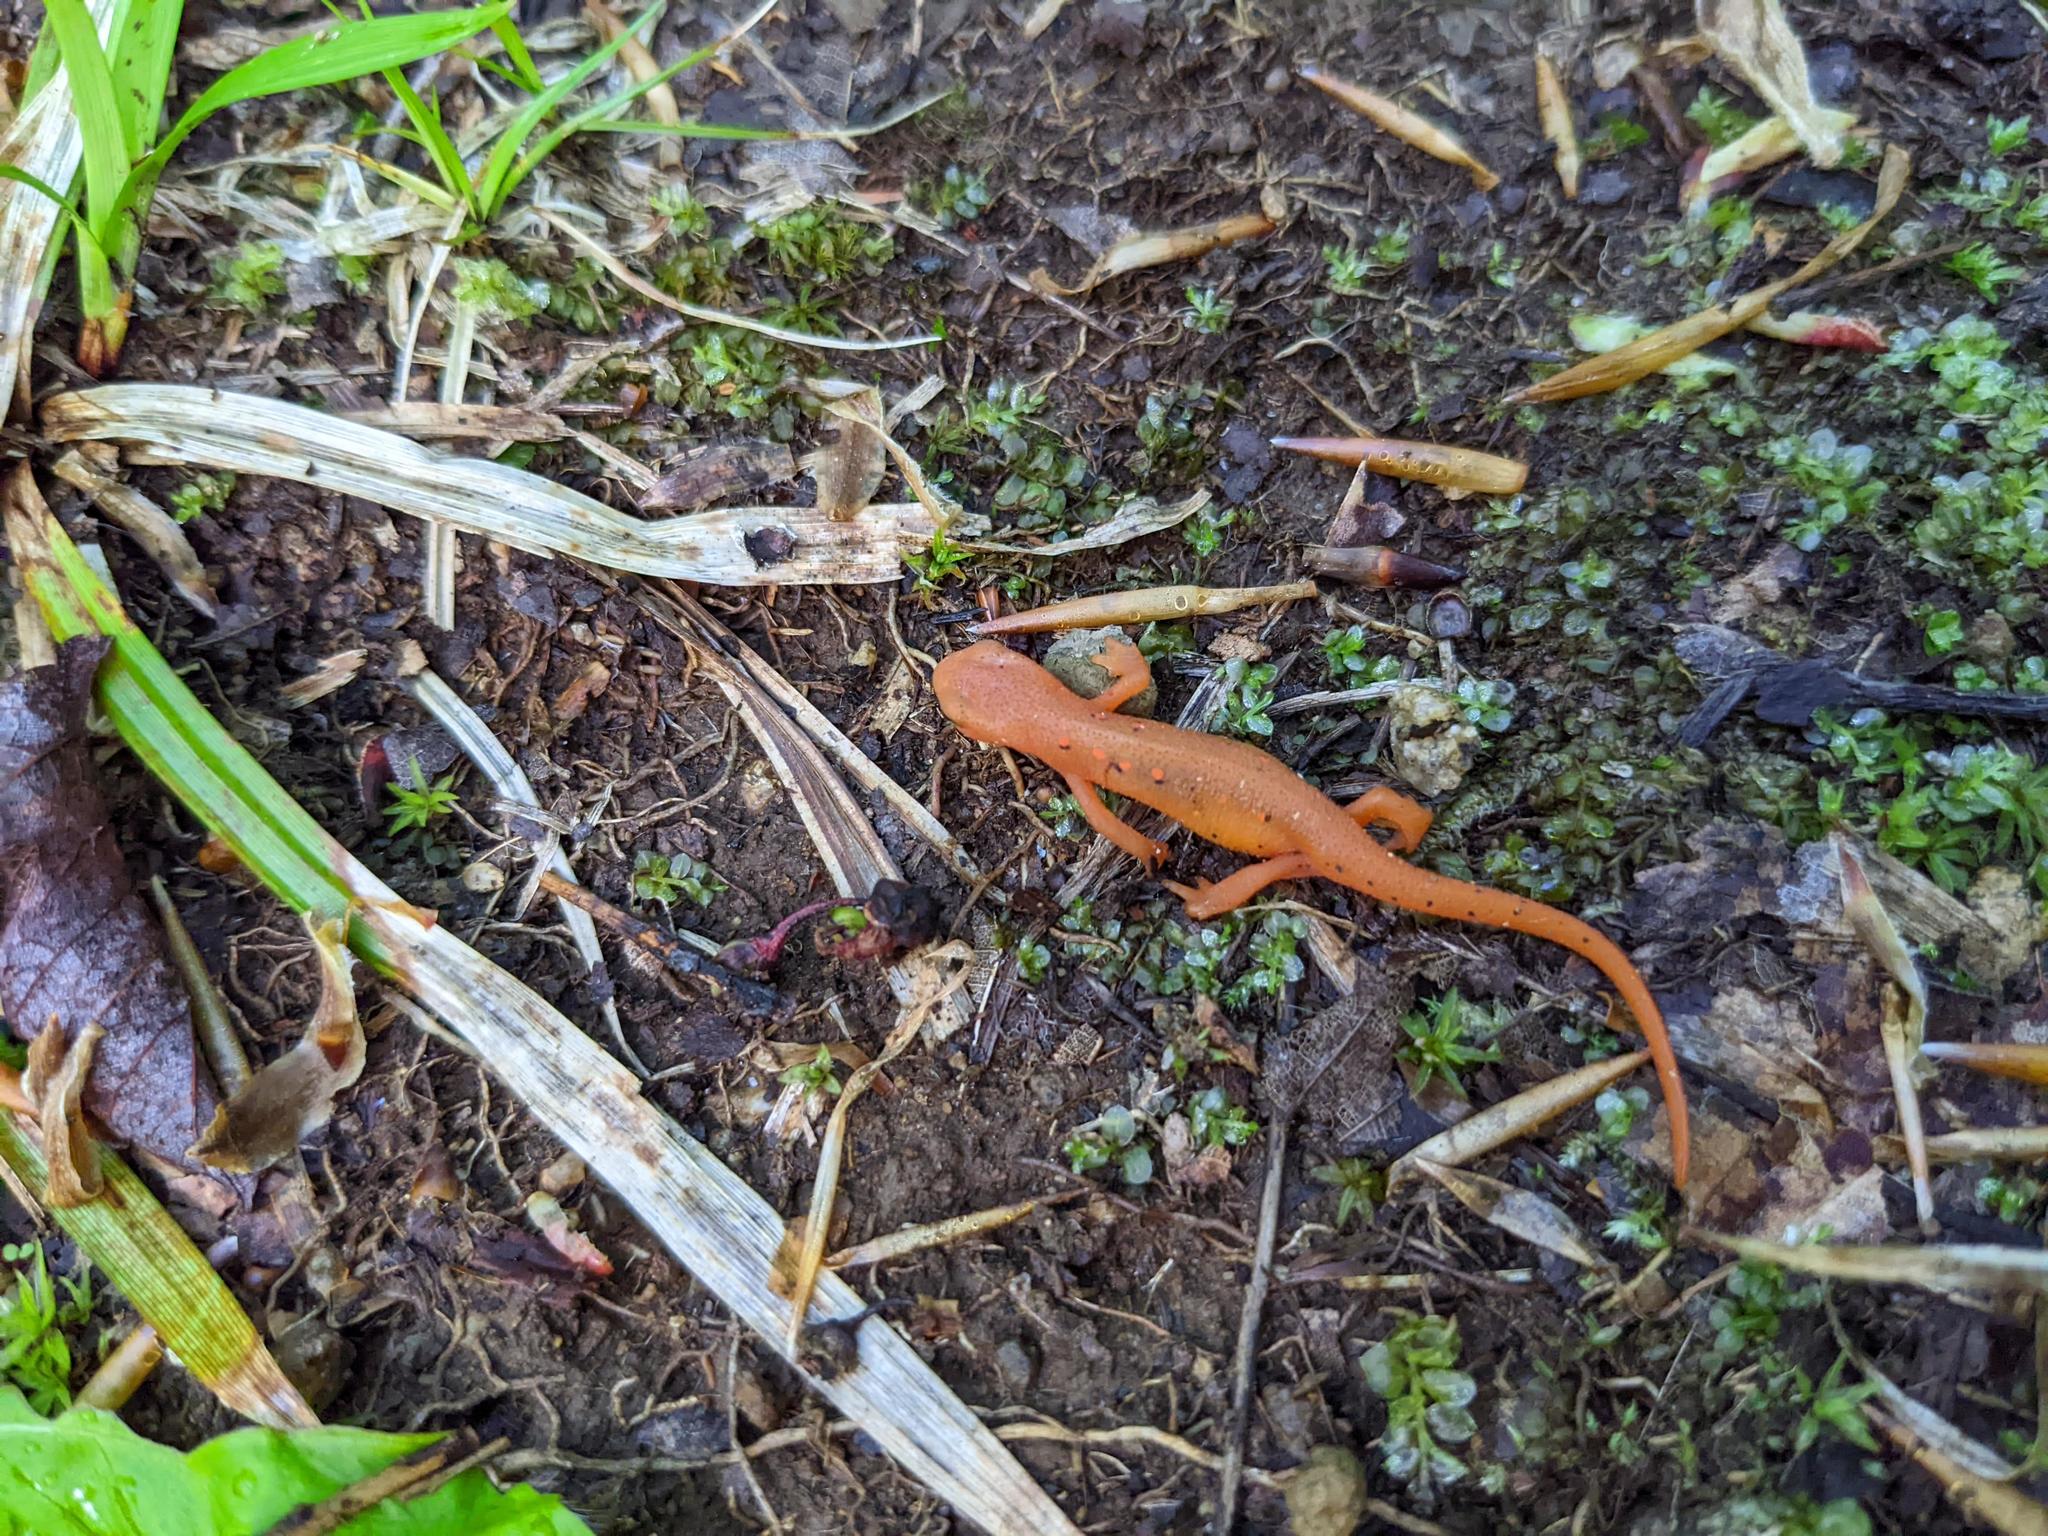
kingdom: Animalia
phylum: Chordata
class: Amphibia
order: Caudata
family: Salamandridae
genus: Notophthalmus
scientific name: Notophthalmus viridescens
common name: Eastern newt
